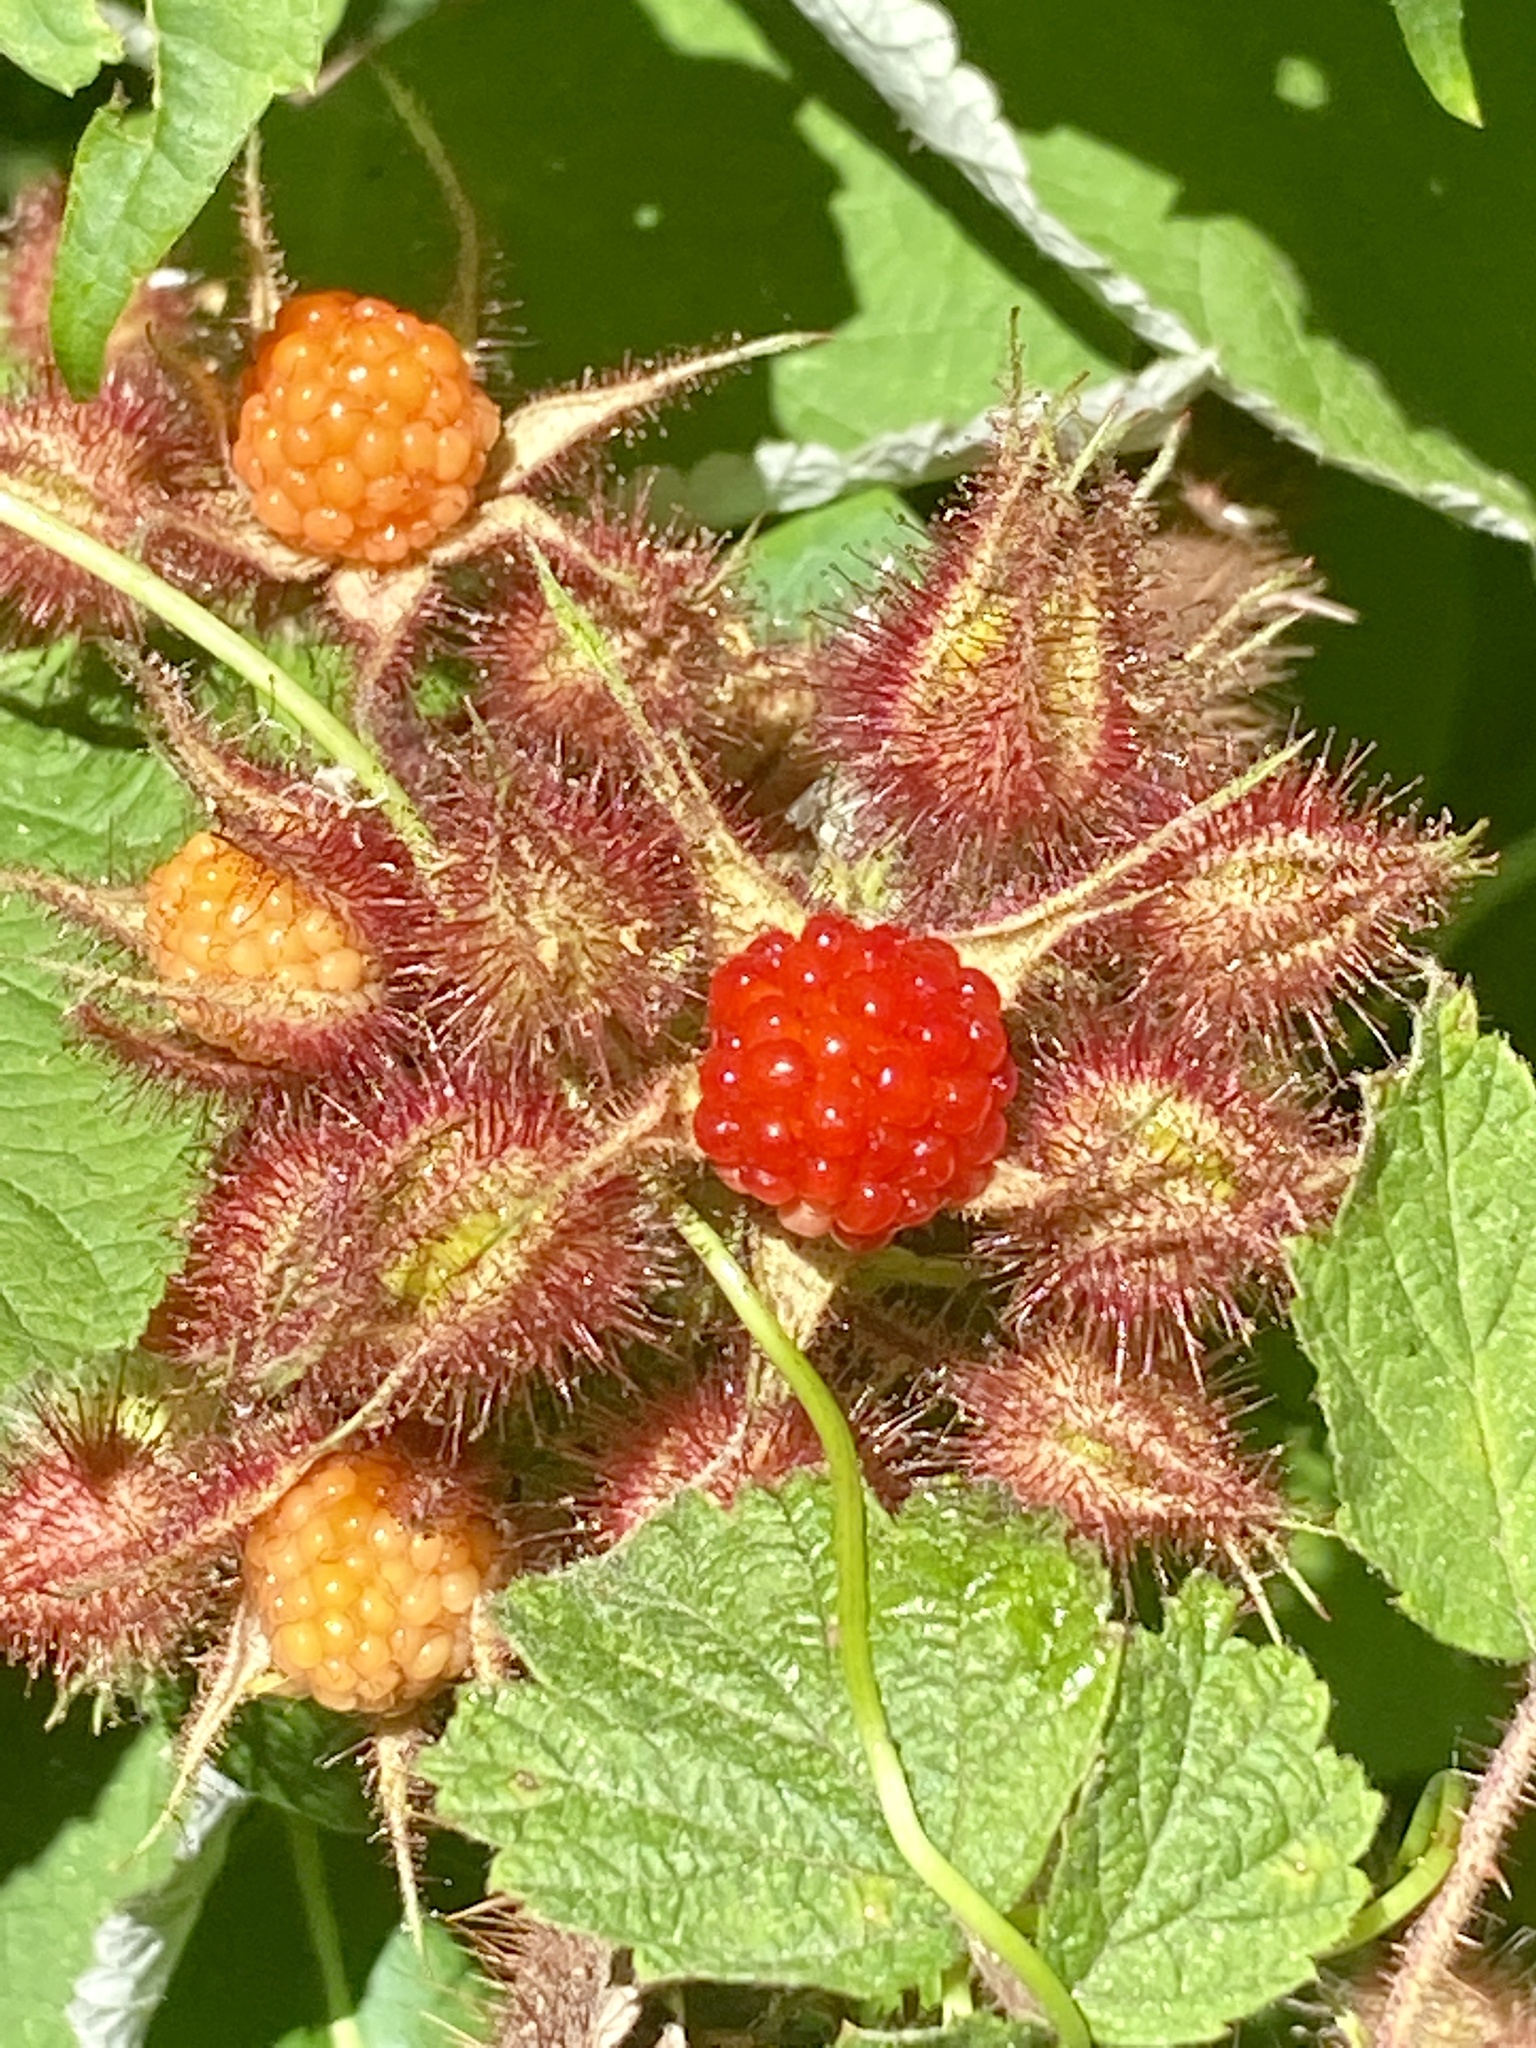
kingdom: Plantae
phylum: Tracheophyta
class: Magnoliopsida
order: Rosales
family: Rosaceae
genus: Rubus
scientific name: Rubus phoenicolasius
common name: Japanese wineberry
